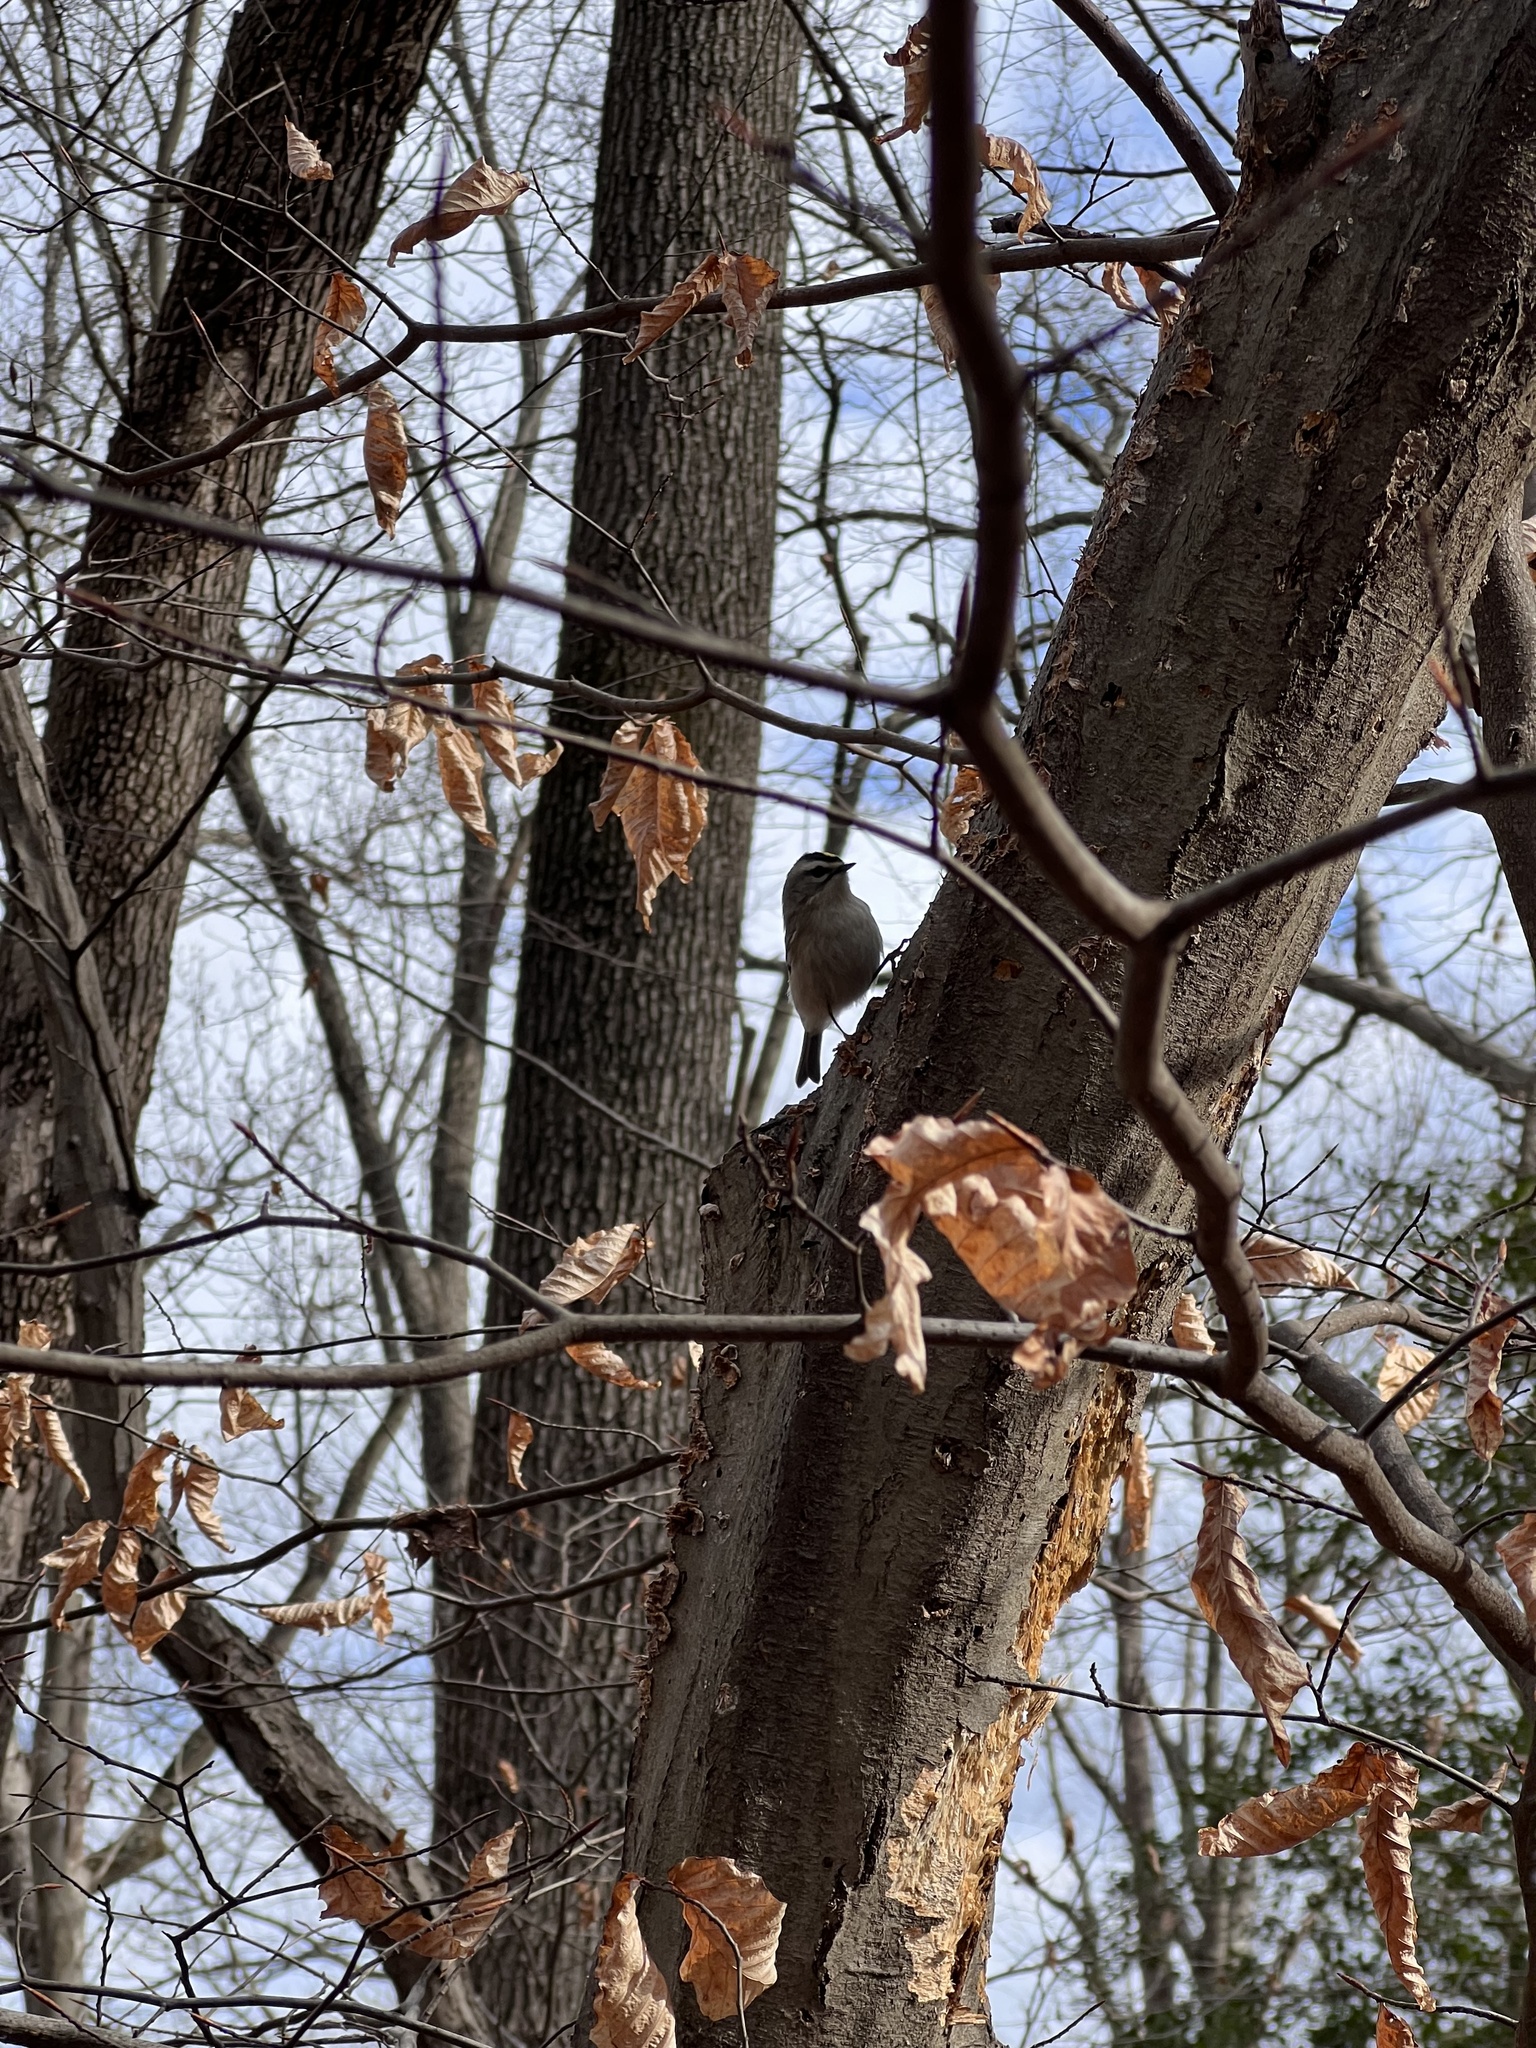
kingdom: Animalia
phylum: Chordata
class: Aves
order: Passeriformes
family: Regulidae
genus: Regulus
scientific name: Regulus satrapa
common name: Golden-crowned kinglet
